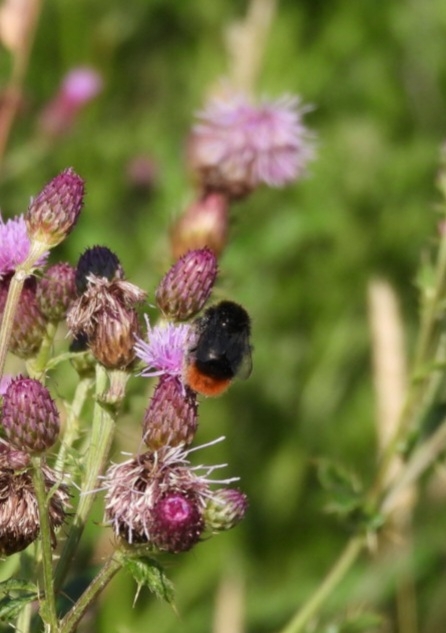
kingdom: Animalia
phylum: Arthropoda
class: Insecta
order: Hymenoptera
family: Apidae
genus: Bombus
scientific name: Bombus lapidarius
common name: Large red-tailed humble-bee
